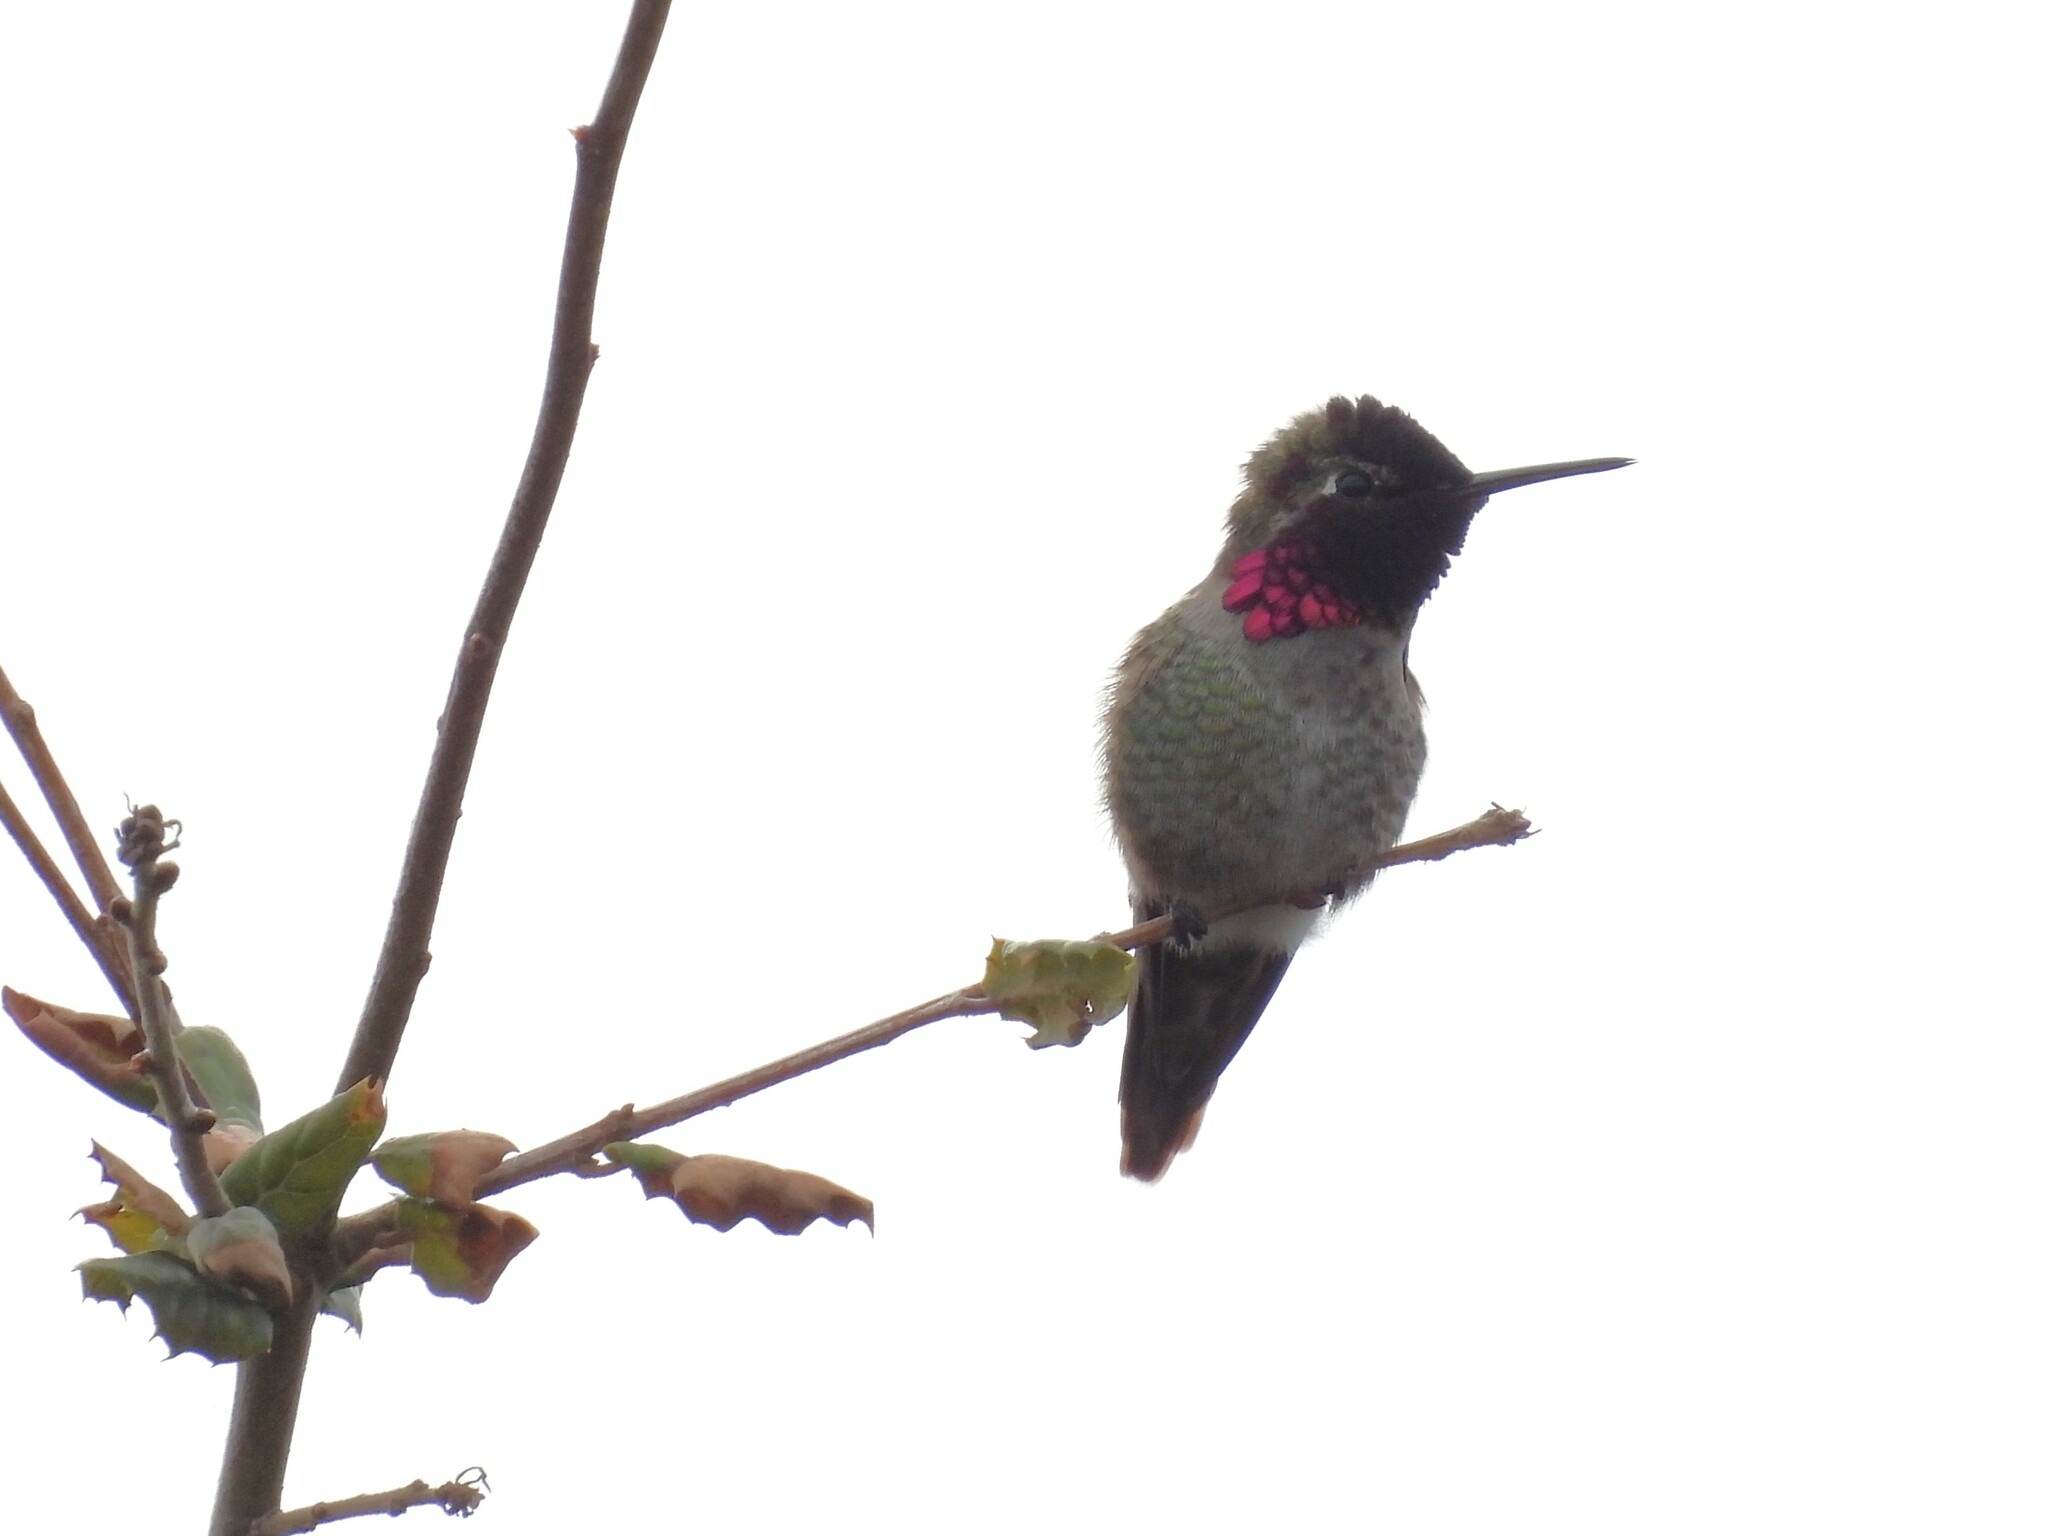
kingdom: Animalia
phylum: Chordata
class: Aves
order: Apodiformes
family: Trochilidae
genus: Calypte
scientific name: Calypte anna
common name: Anna's hummingbird
